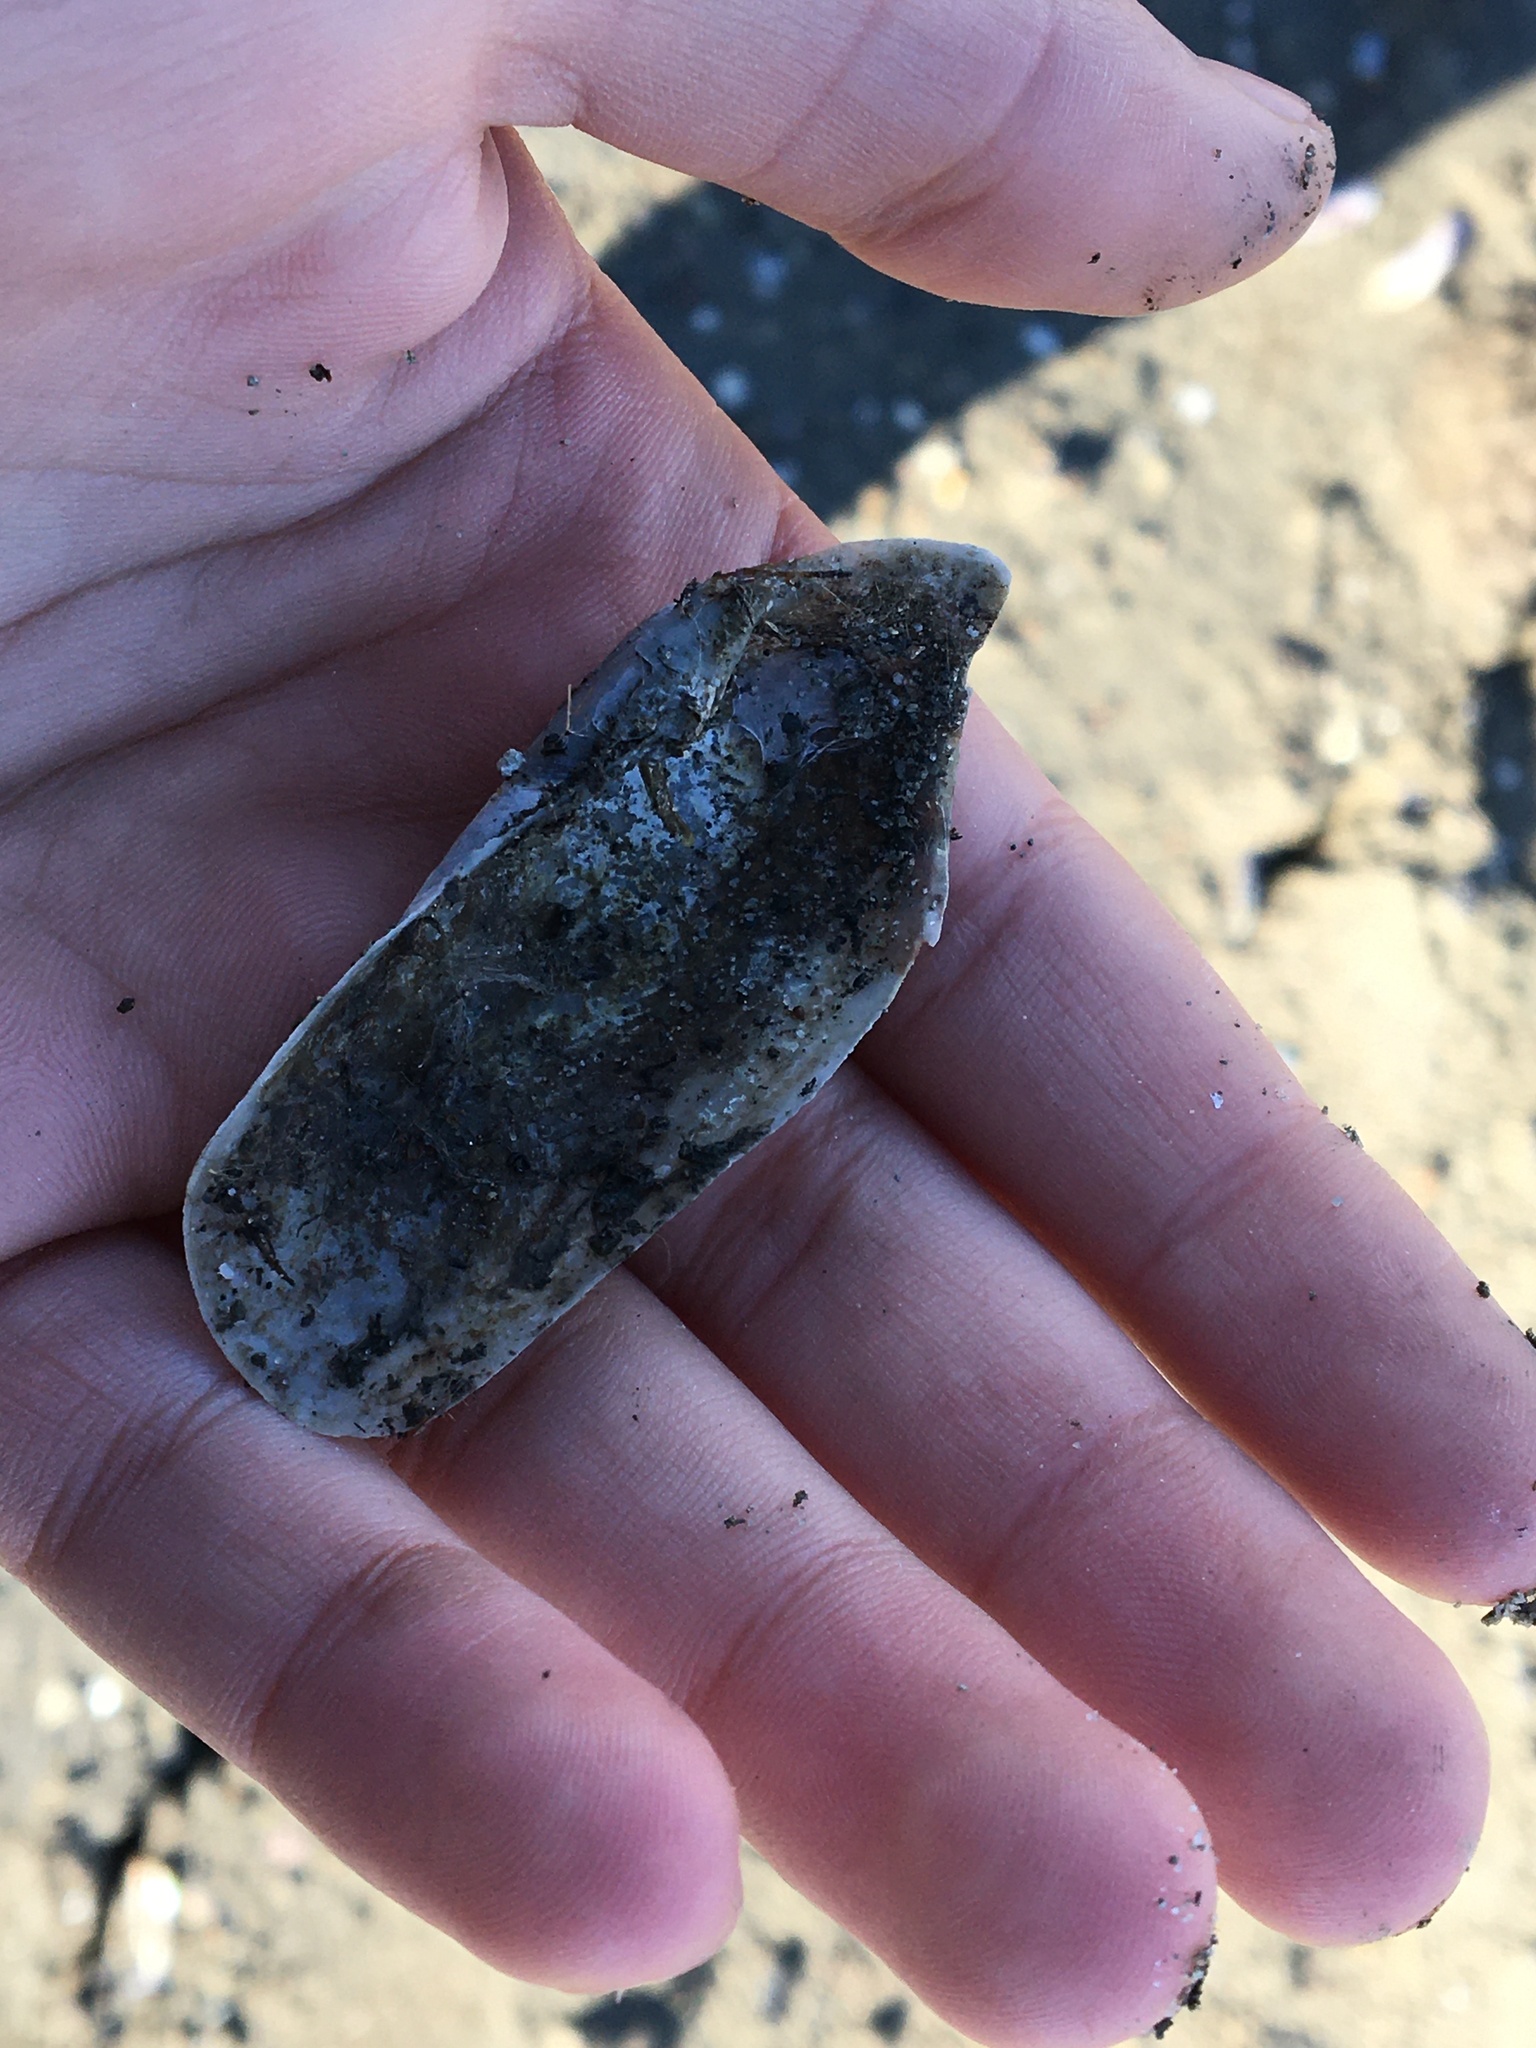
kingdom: Animalia
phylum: Mollusca
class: Bivalvia
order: Myida
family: Pholadidae
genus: Barnea
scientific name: Barnea subtruncata
